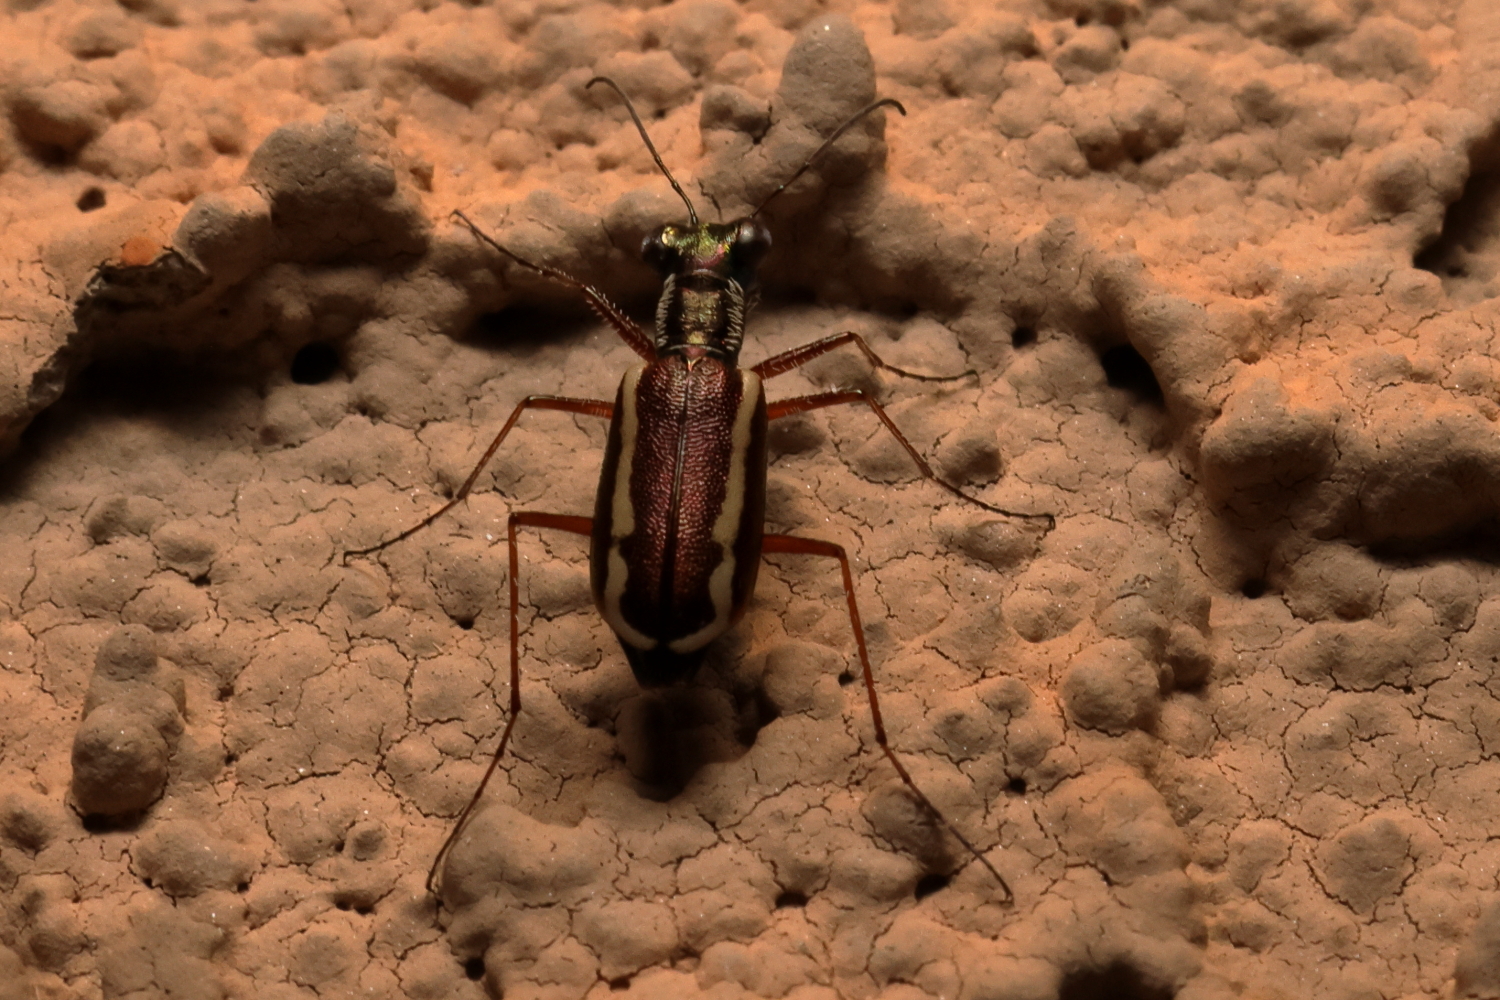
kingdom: Animalia
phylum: Arthropoda
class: Insecta
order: Coleoptera
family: Carabidae
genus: Cylindera
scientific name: Cylindera lemniscata
